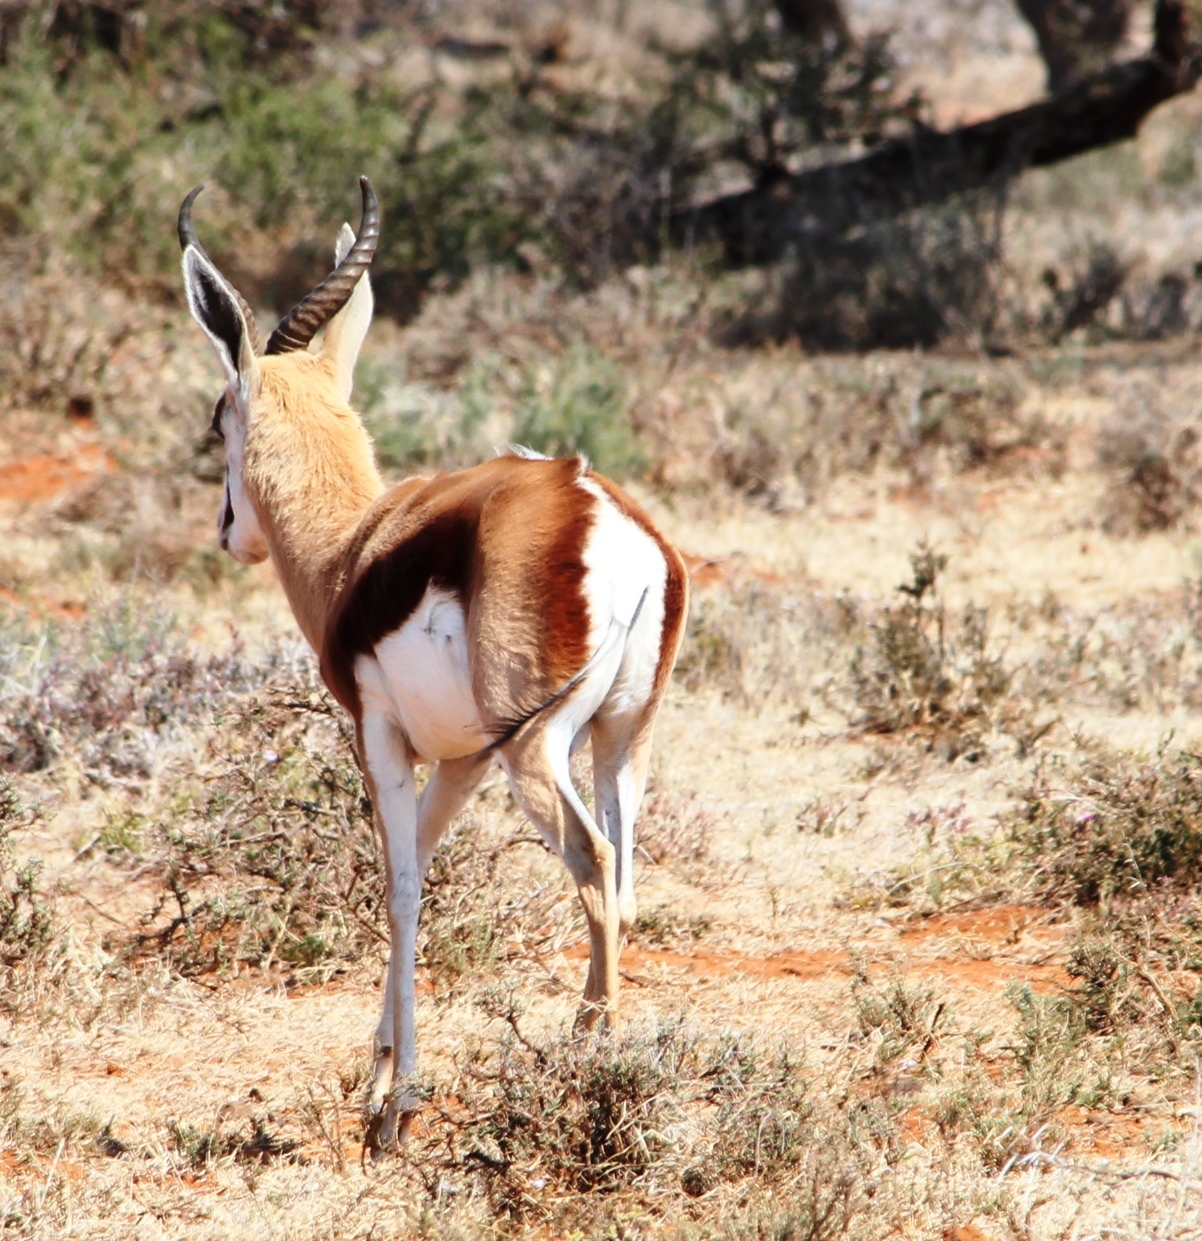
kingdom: Animalia
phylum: Chordata
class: Mammalia
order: Artiodactyla
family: Bovidae
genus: Antidorcas
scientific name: Antidorcas marsupialis
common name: Springbok
